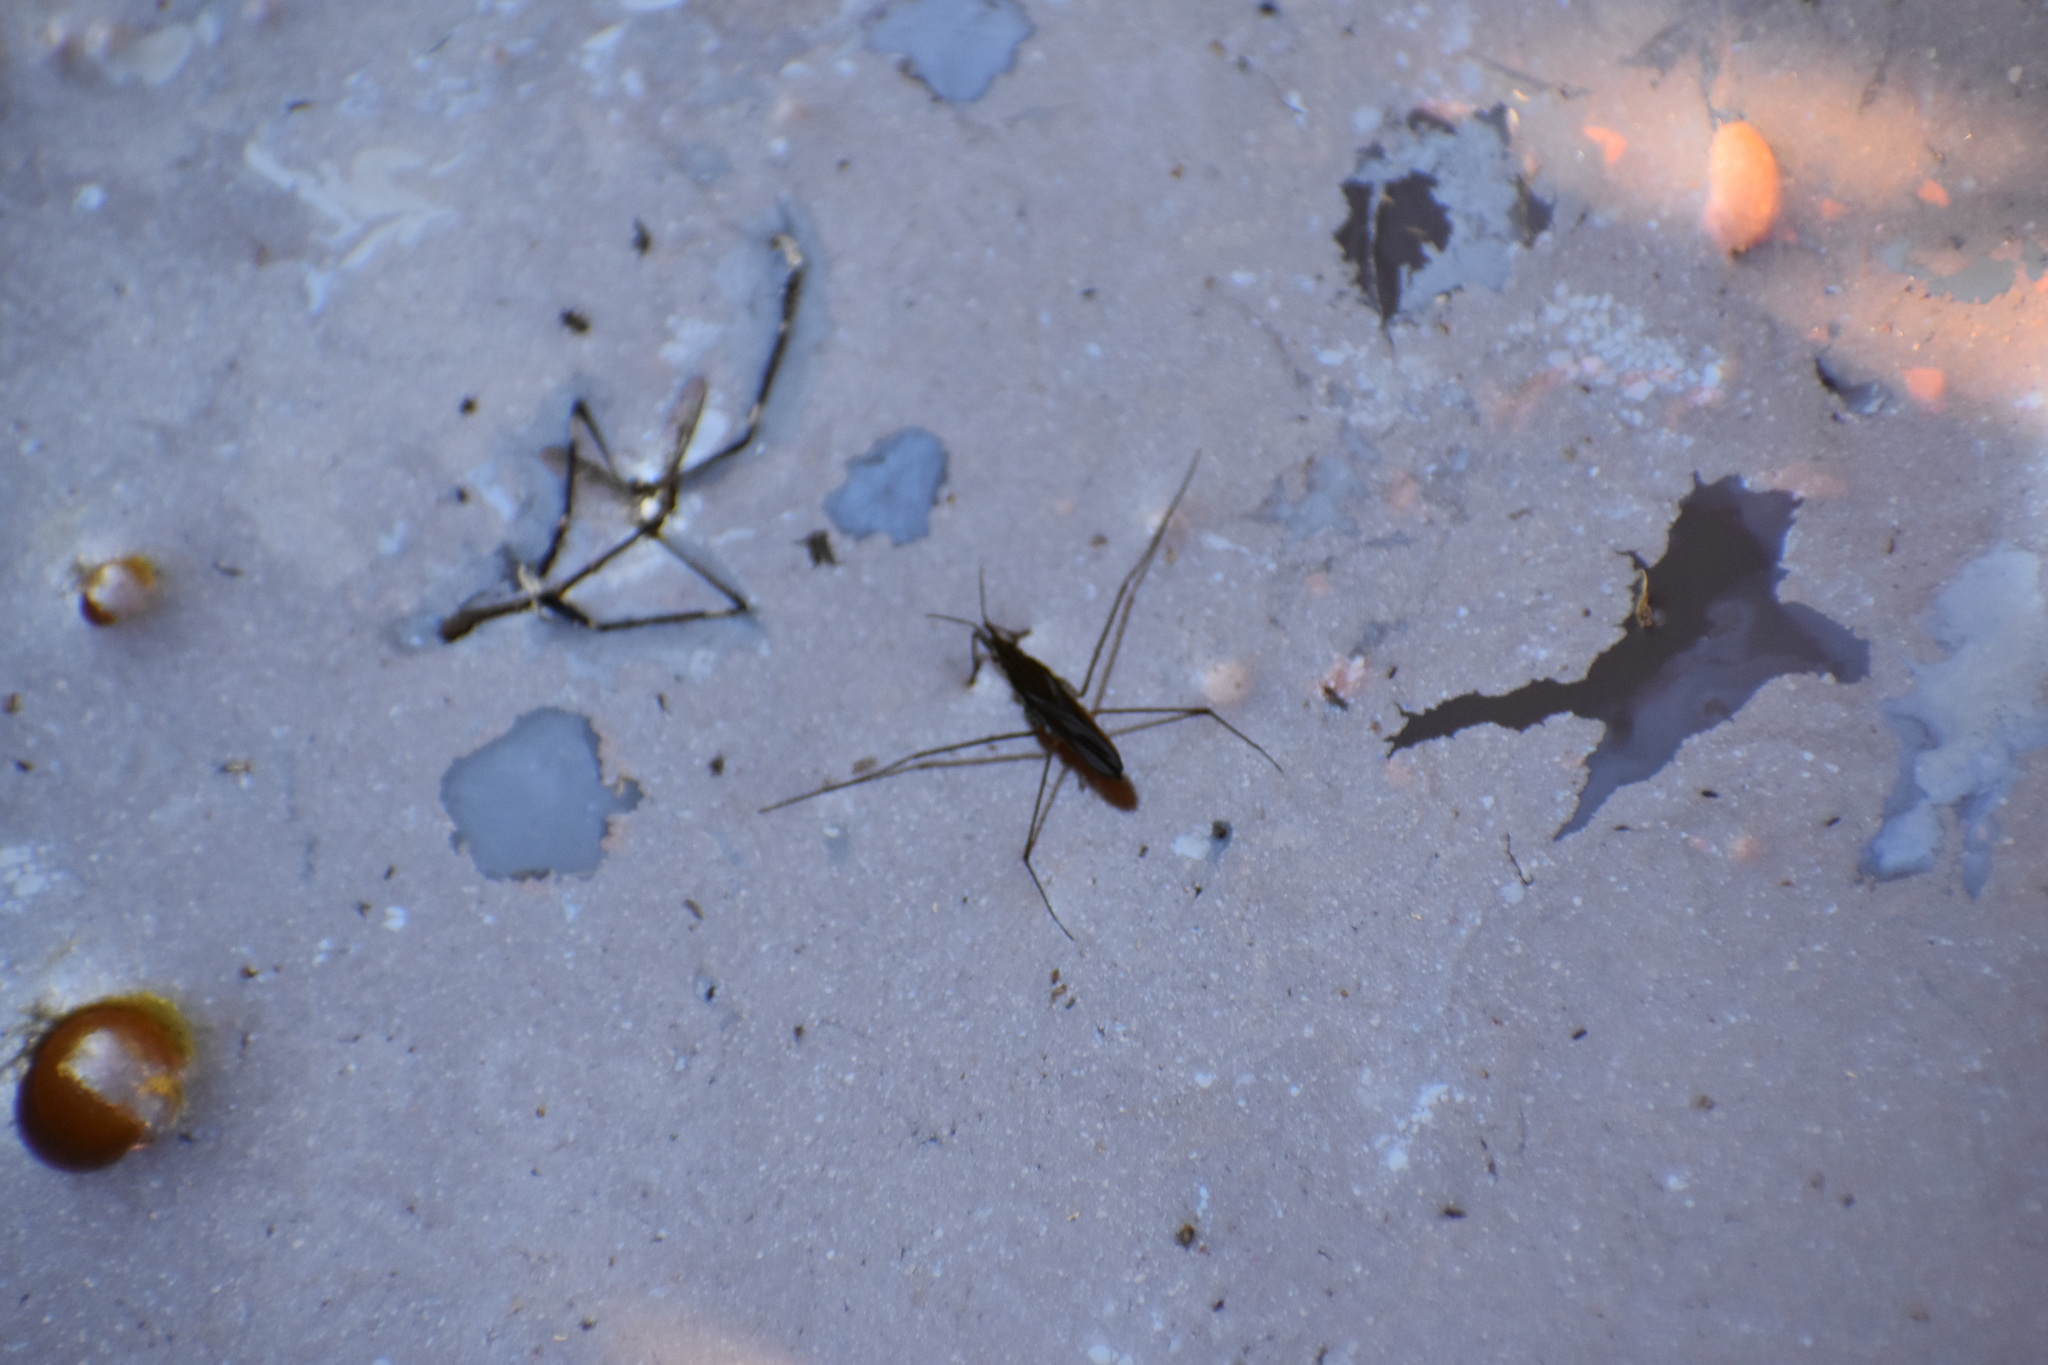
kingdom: Animalia
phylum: Arthropoda
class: Insecta
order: Hemiptera
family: Gerridae
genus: Gerris
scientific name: Gerris
